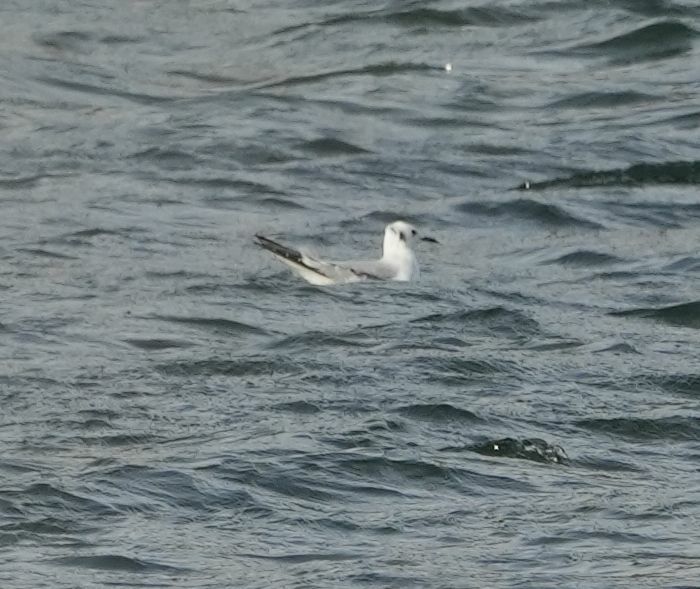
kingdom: Animalia
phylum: Chordata
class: Aves
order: Charadriiformes
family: Laridae
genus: Chroicocephalus
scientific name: Chroicocephalus philadelphia
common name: Bonaparte's gull
